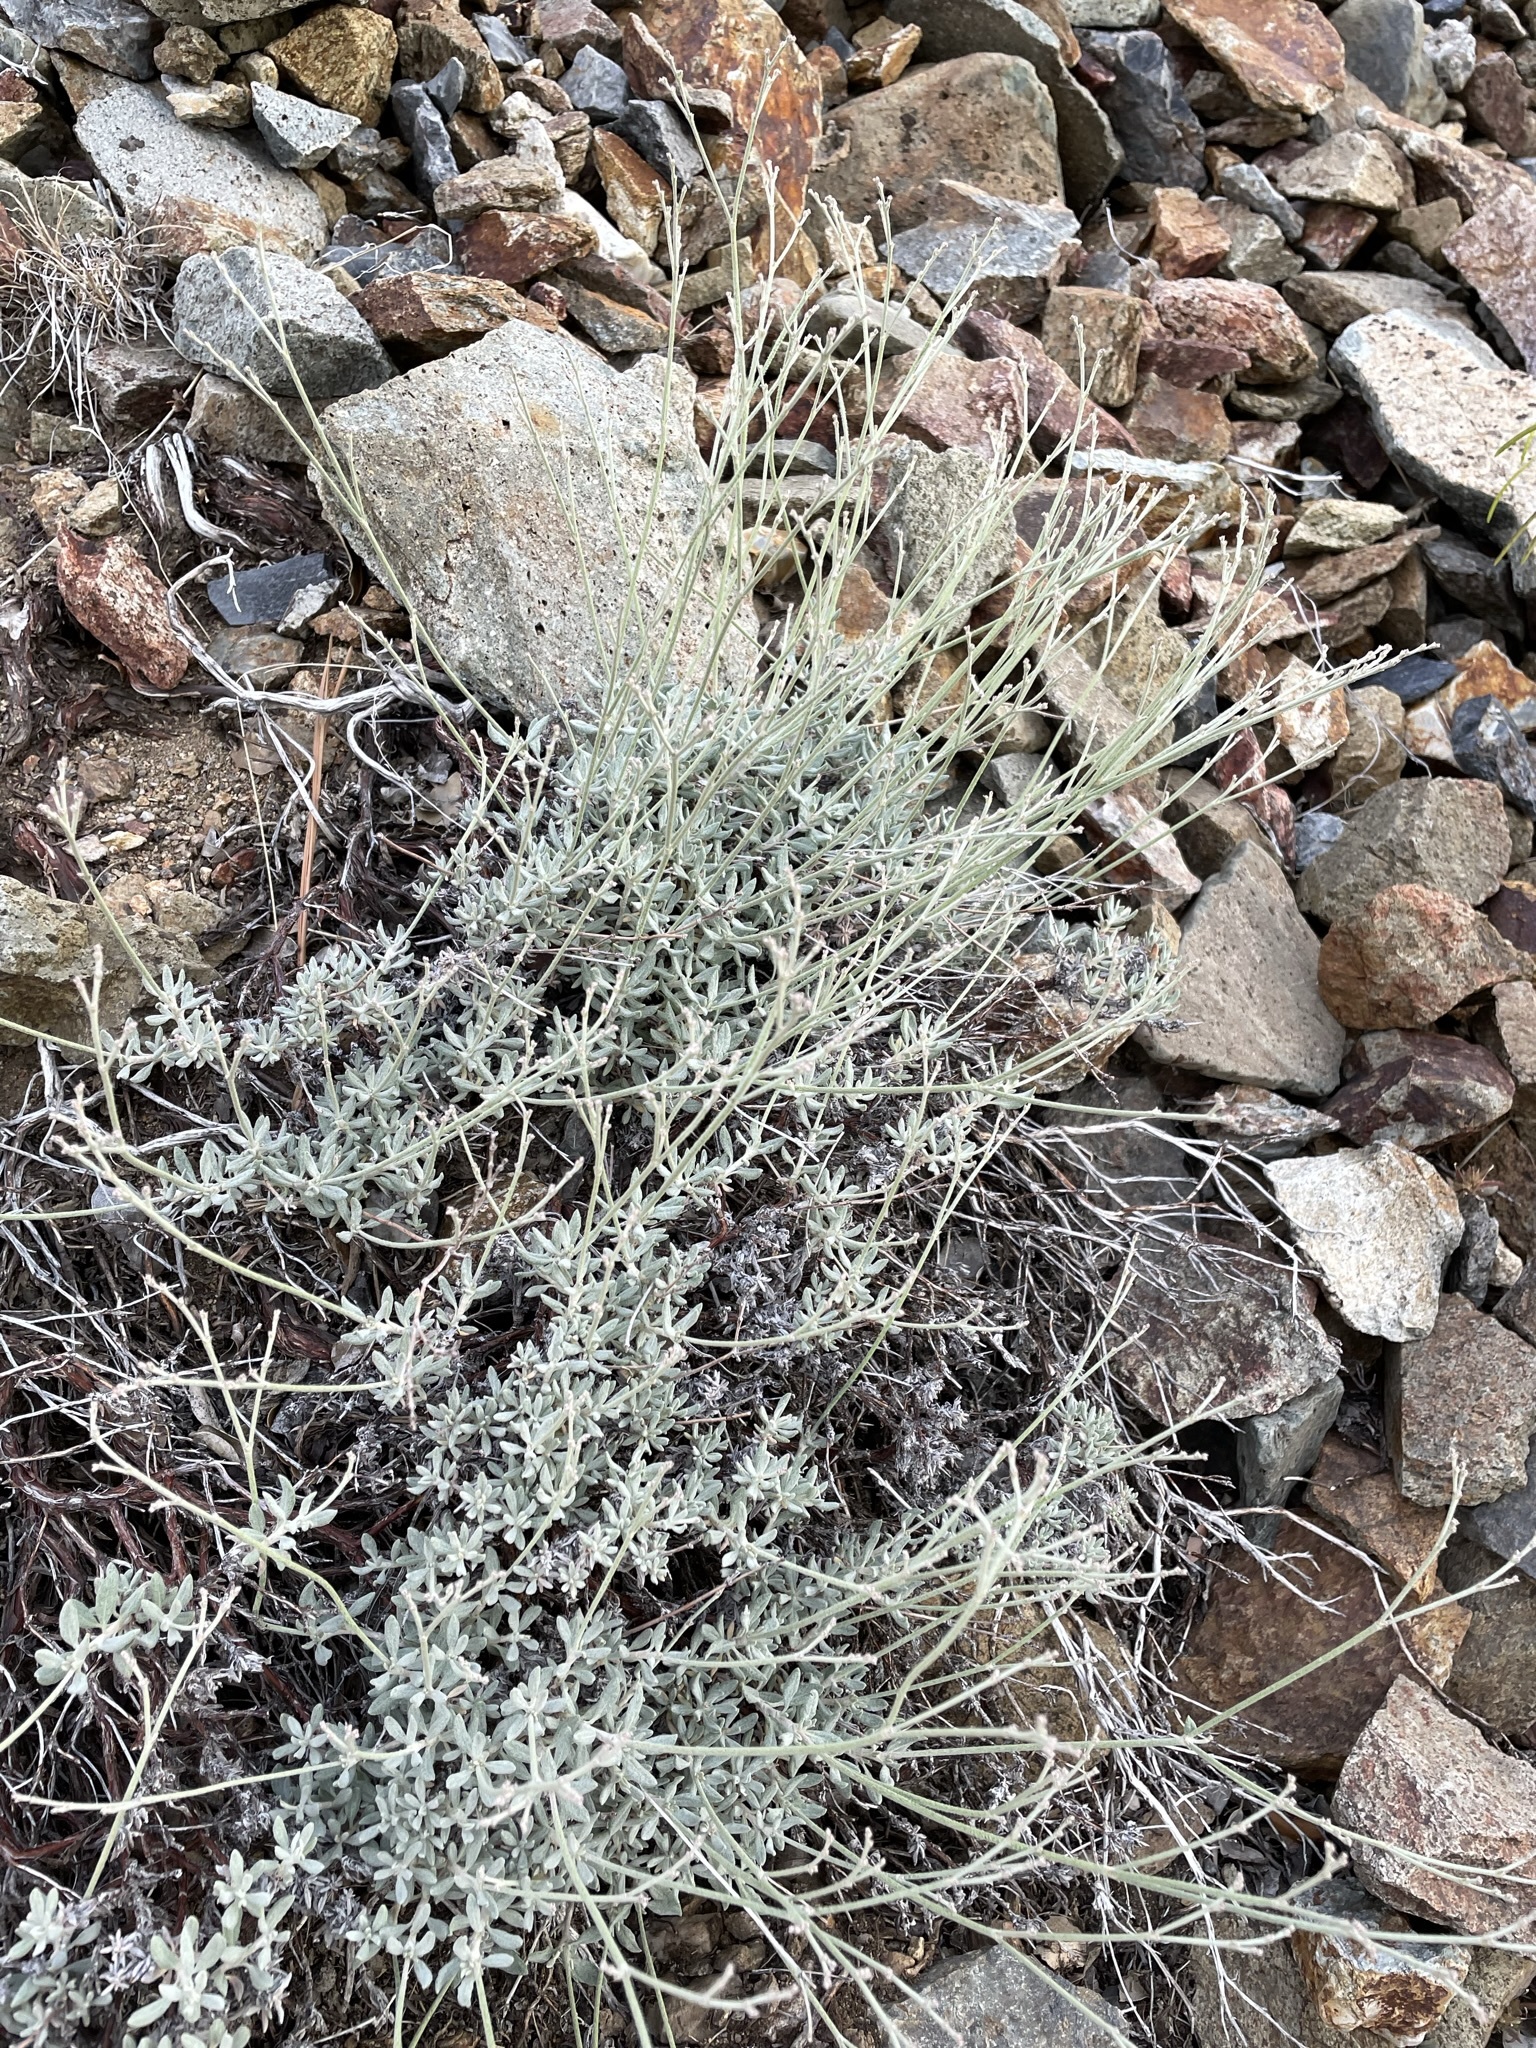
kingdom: Plantae
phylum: Tracheophyta
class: Magnoliopsida
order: Caryophyllales
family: Polygonaceae
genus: Eriogonum
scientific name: Eriogonum wrightii
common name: Bastard-sage
